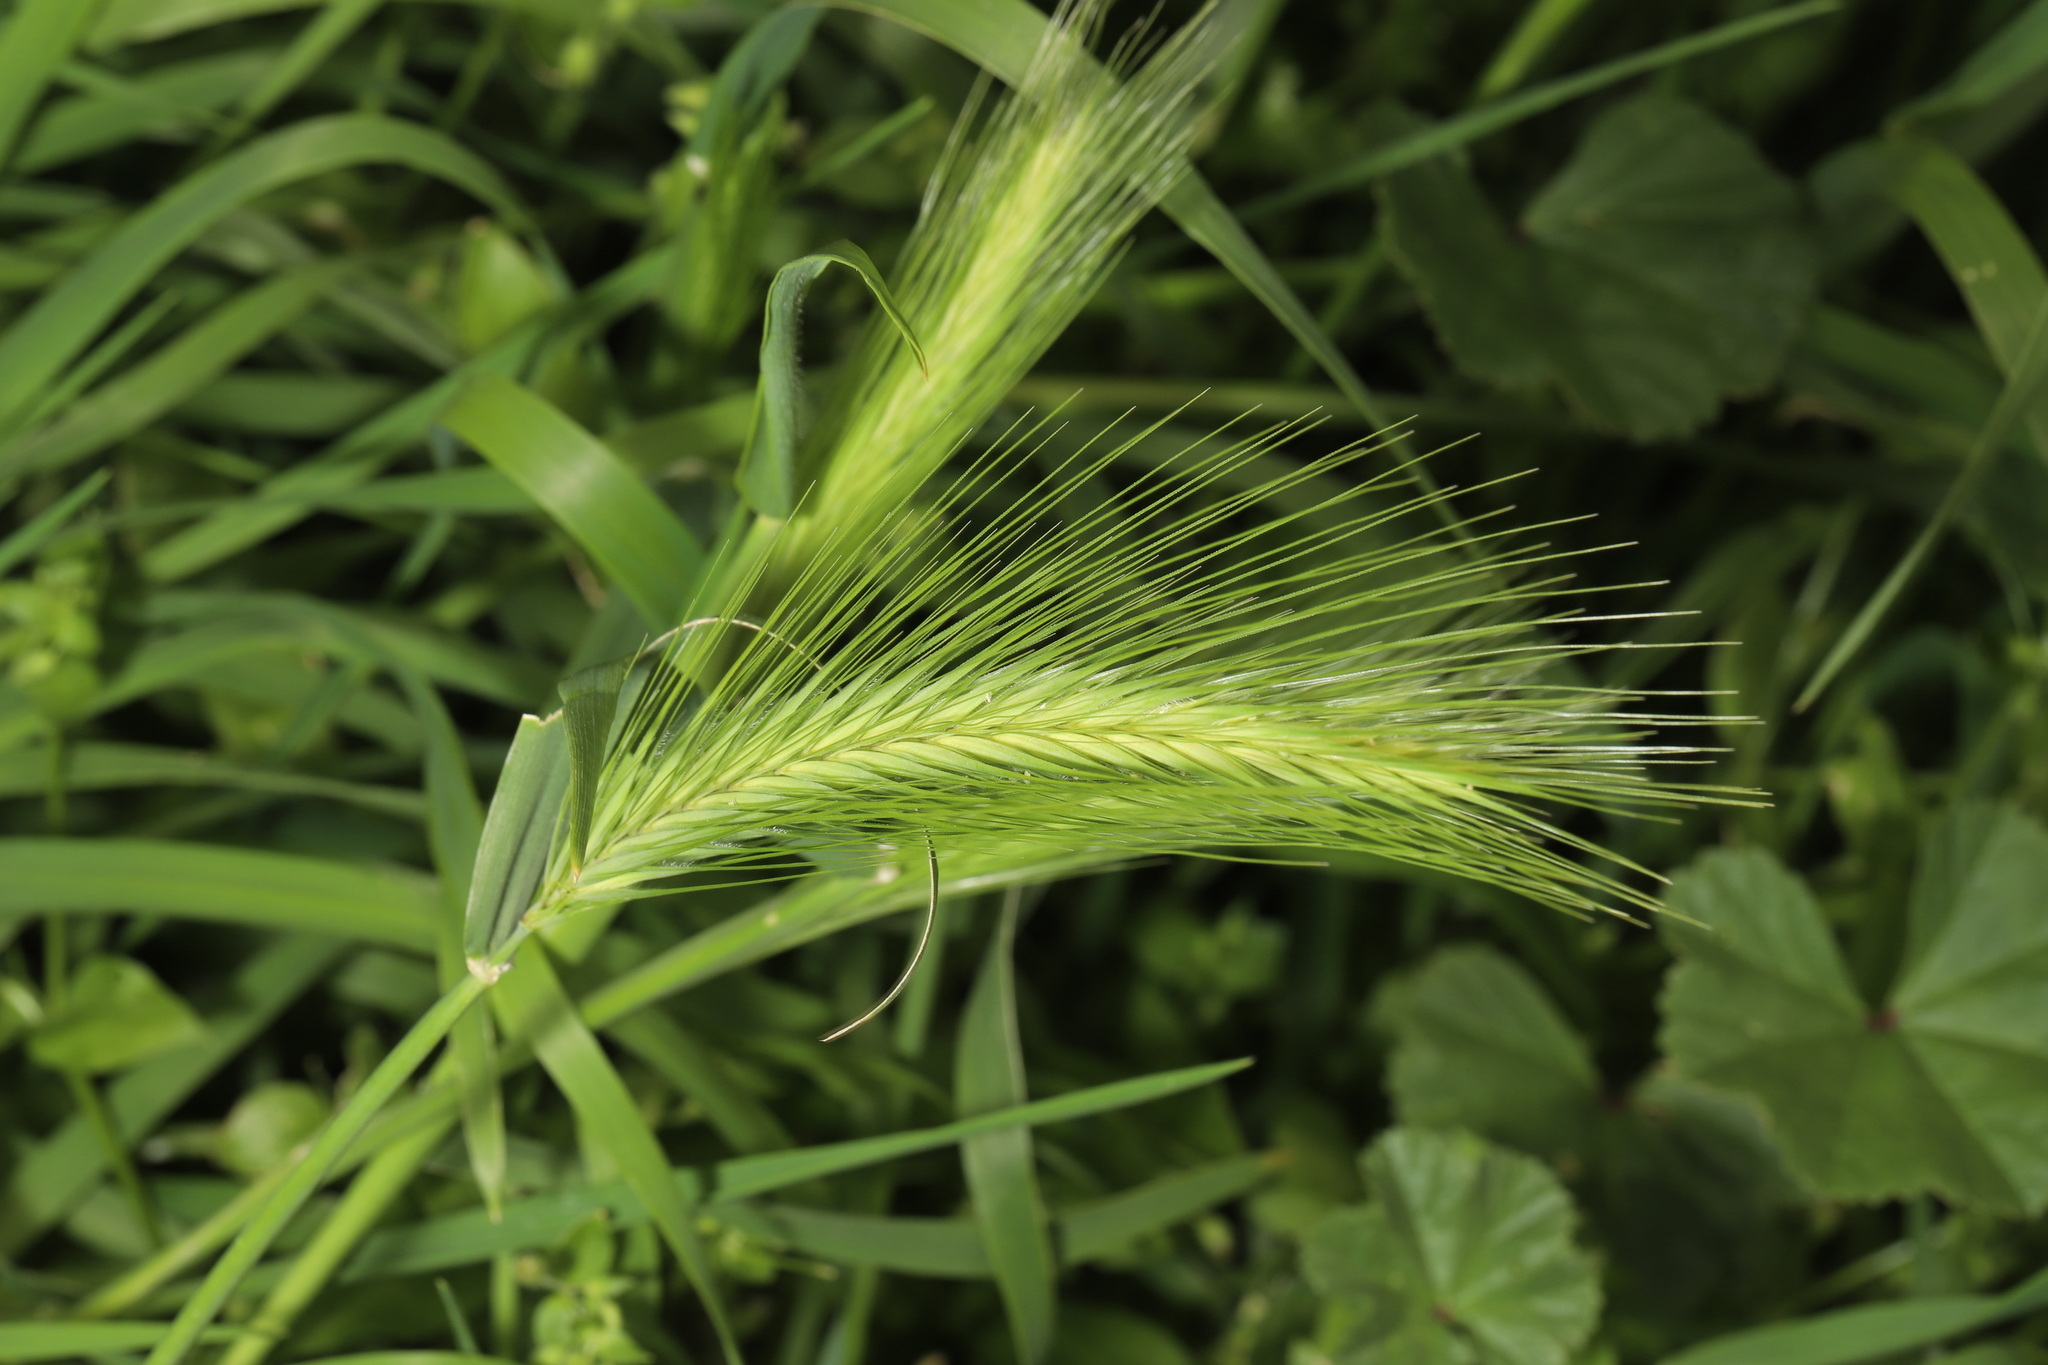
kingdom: Plantae
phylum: Tracheophyta
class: Liliopsida
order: Poales
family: Poaceae
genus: Hordeum
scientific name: Hordeum murinum
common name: Wall barley
